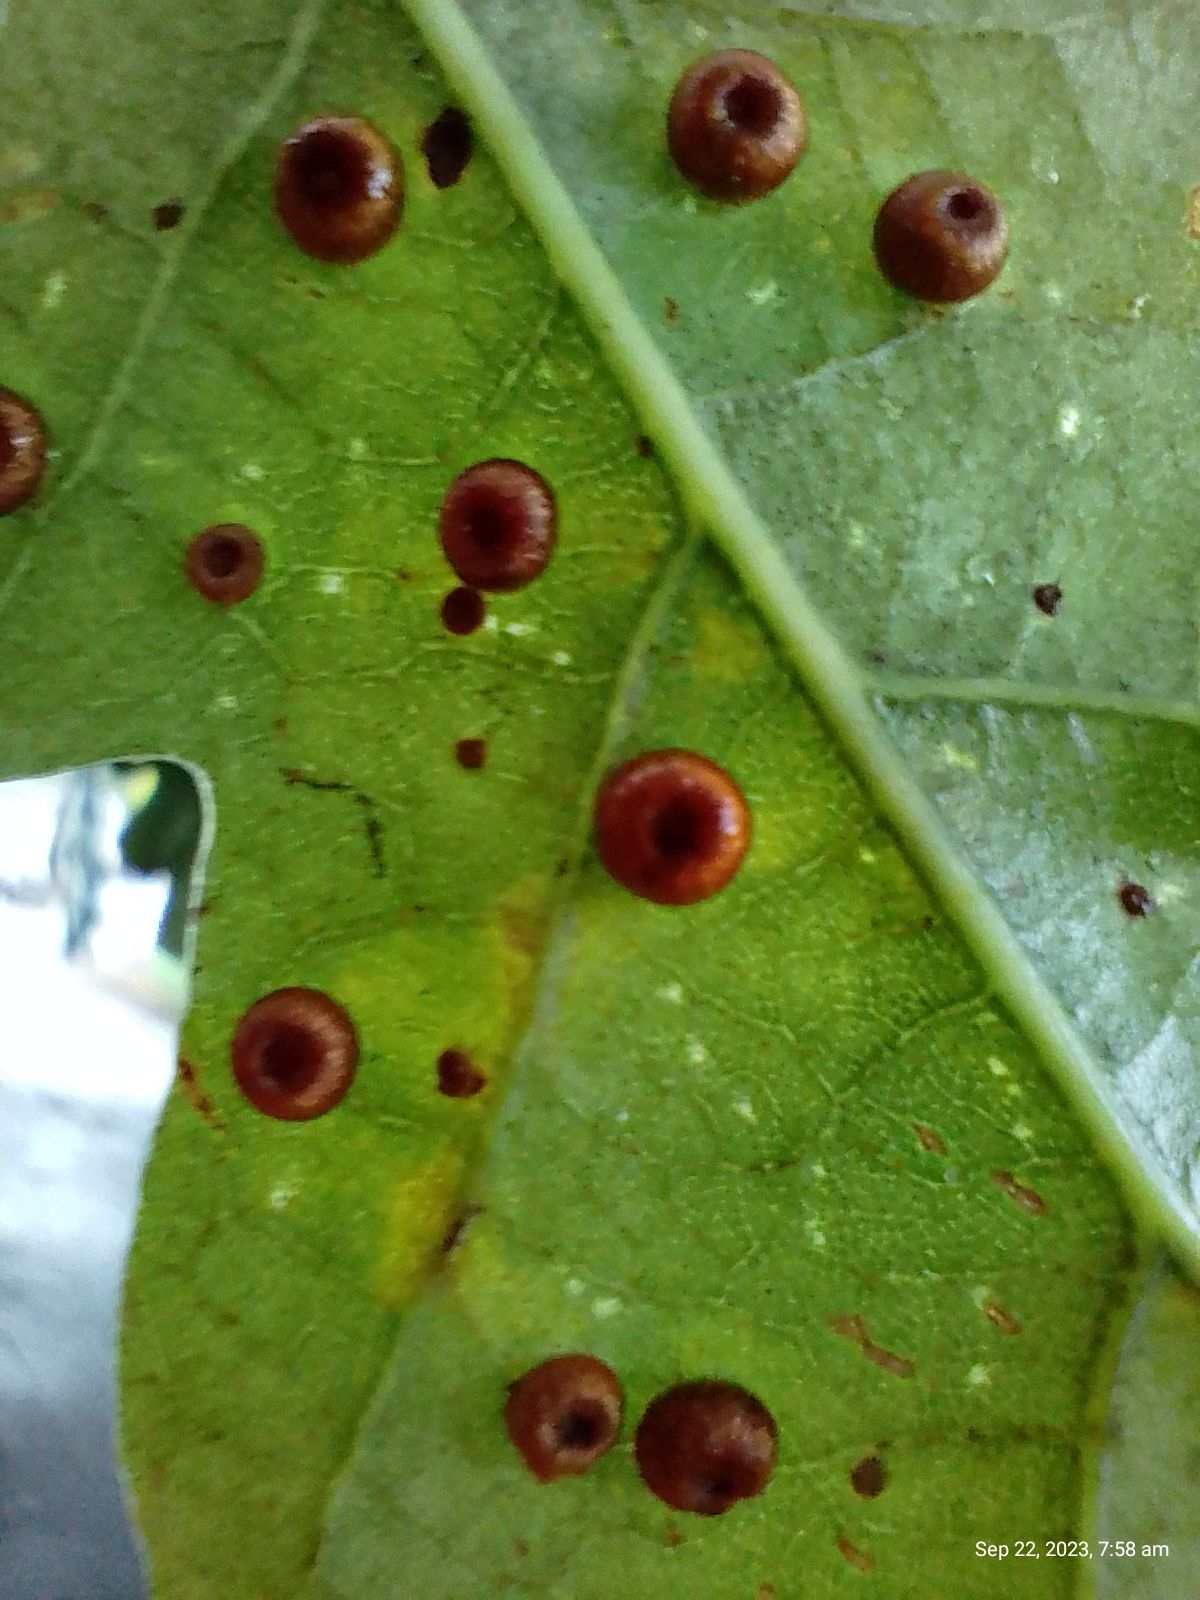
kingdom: Animalia
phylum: Arthropoda
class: Insecta
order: Hymenoptera
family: Cynipidae
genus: Neuroterus
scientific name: Neuroterus numismalis
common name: Silk-button spangle gall
